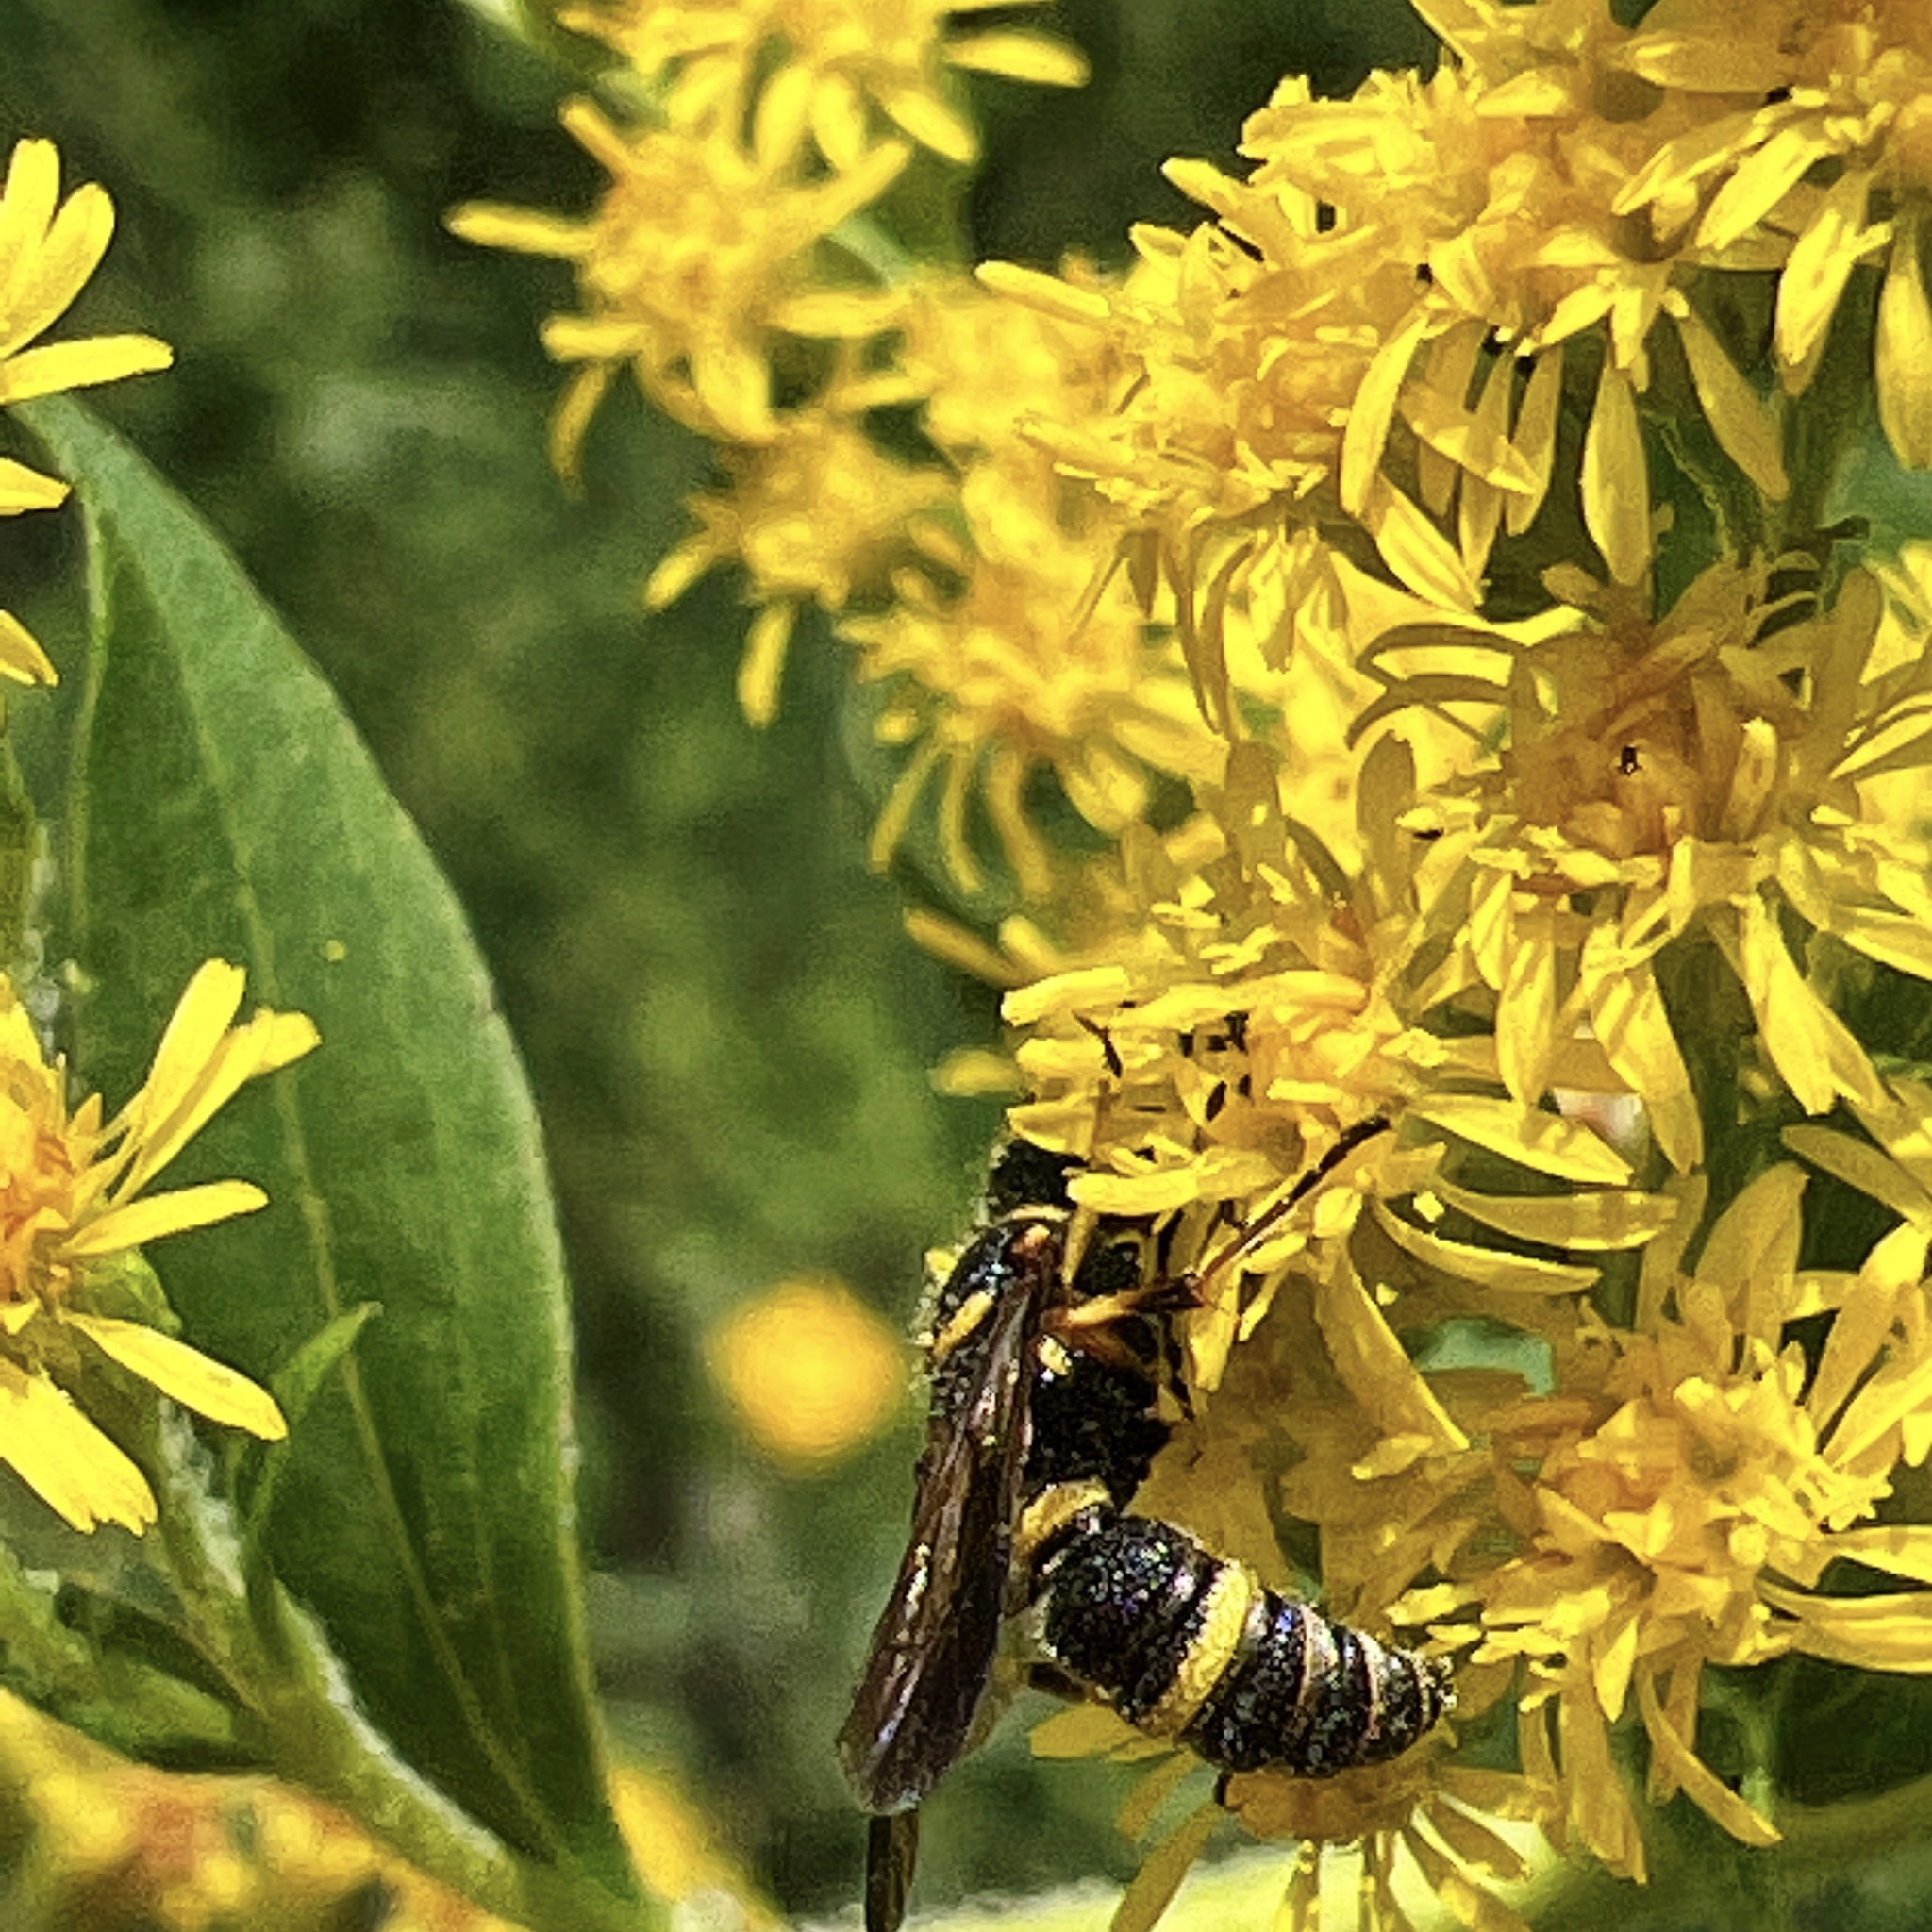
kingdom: Animalia
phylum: Arthropoda
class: Insecta
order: Hymenoptera
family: Crabronidae
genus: Cerceris
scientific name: Cerceris insolita
